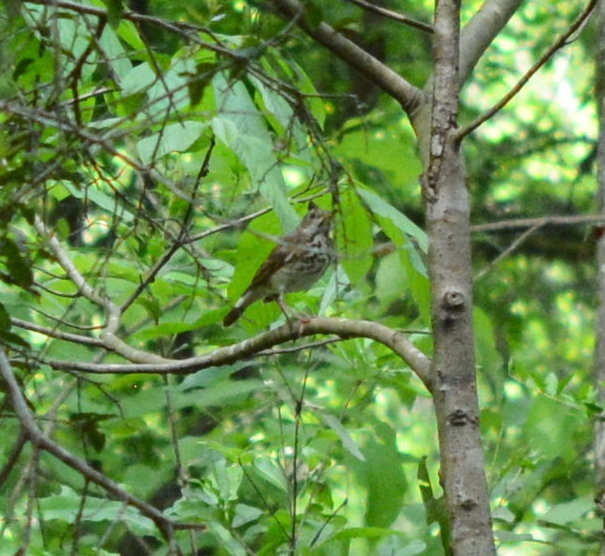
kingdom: Animalia
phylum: Chordata
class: Aves
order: Passeriformes
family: Turdidae
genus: Catharus
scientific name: Catharus guttatus
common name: Hermit thrush
